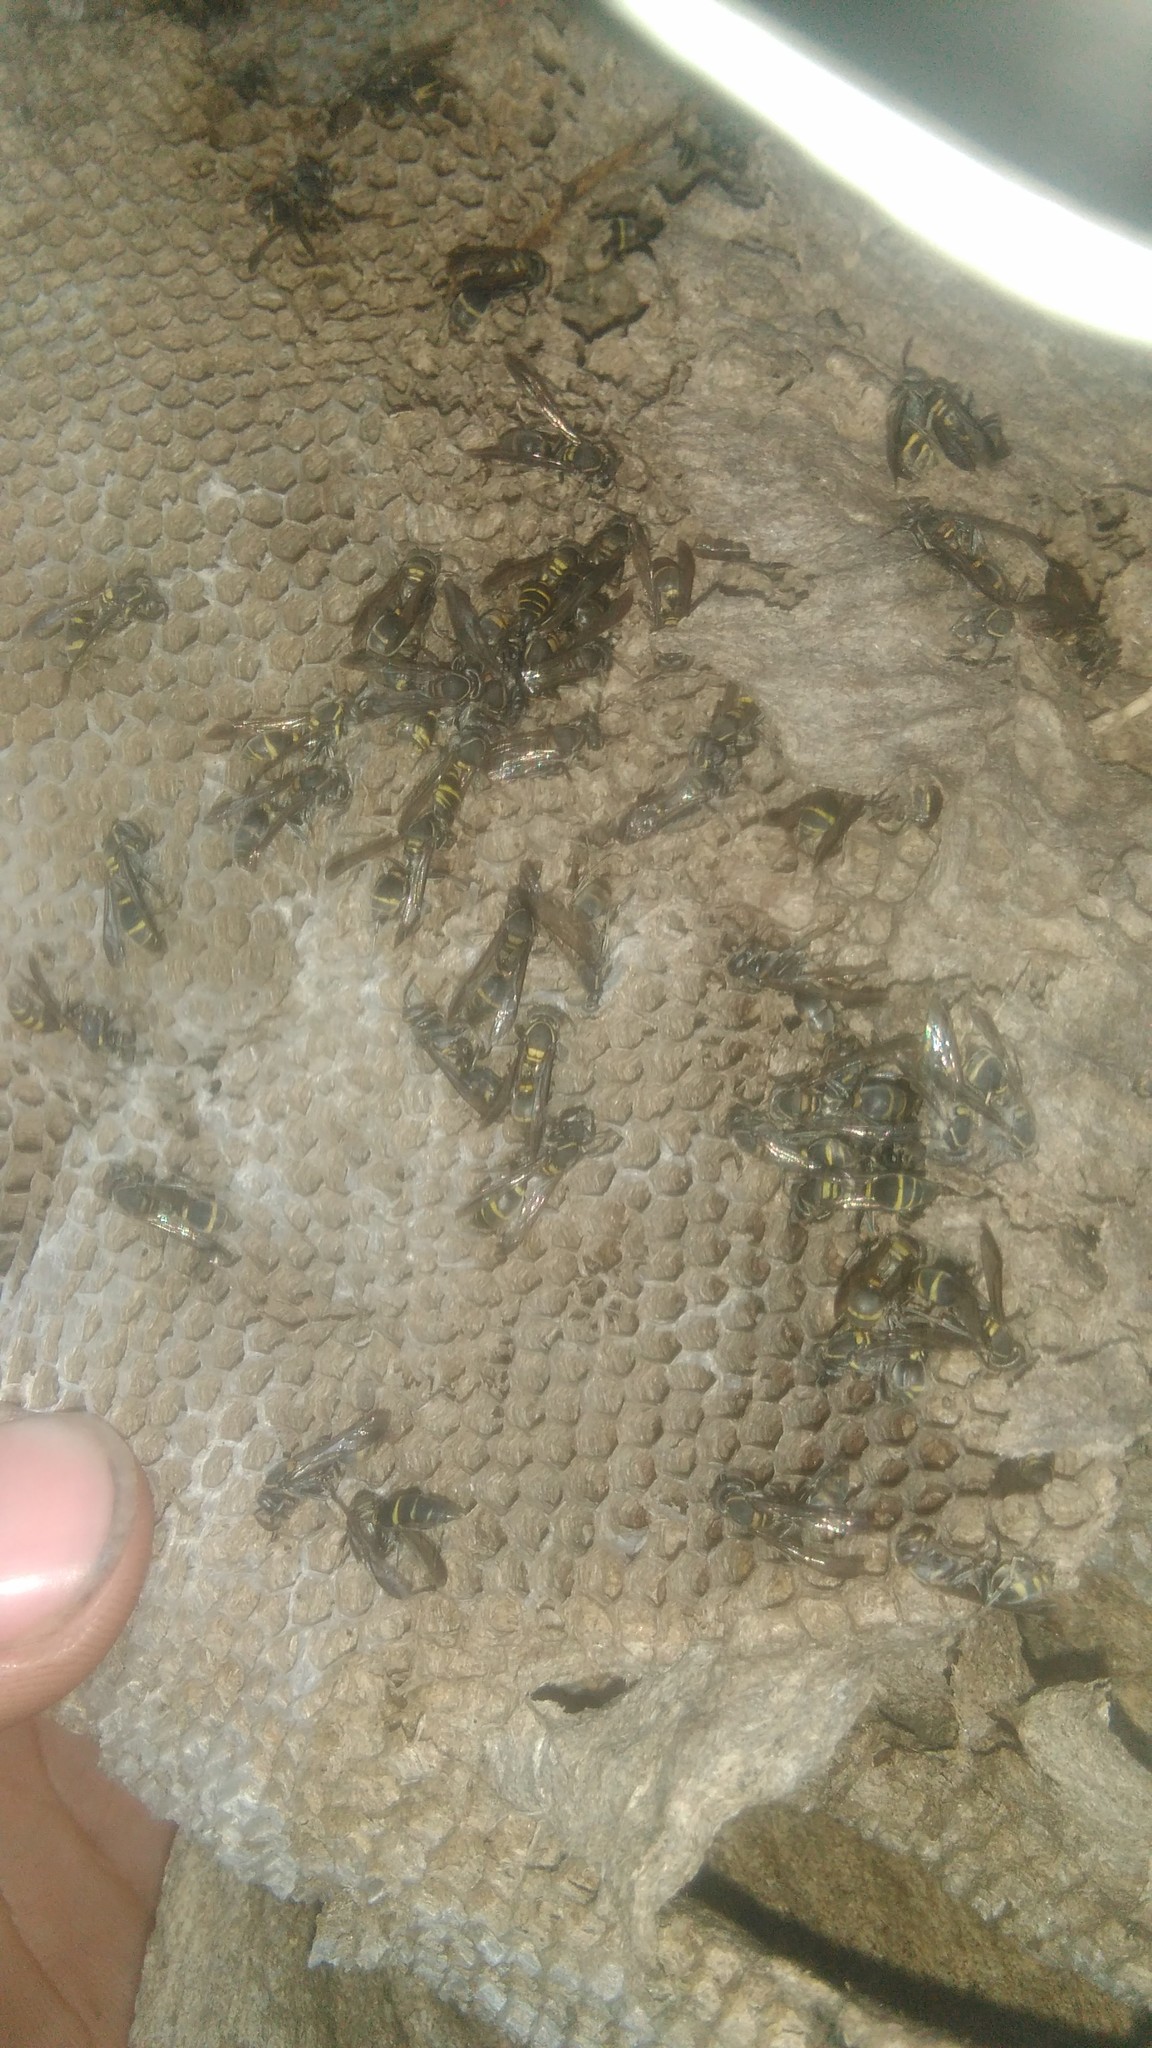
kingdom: Animalia
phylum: Arthropoda
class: Insecta
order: Hymenoptera
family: Eumenidae
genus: Polybia
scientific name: Polybia occidentalis
